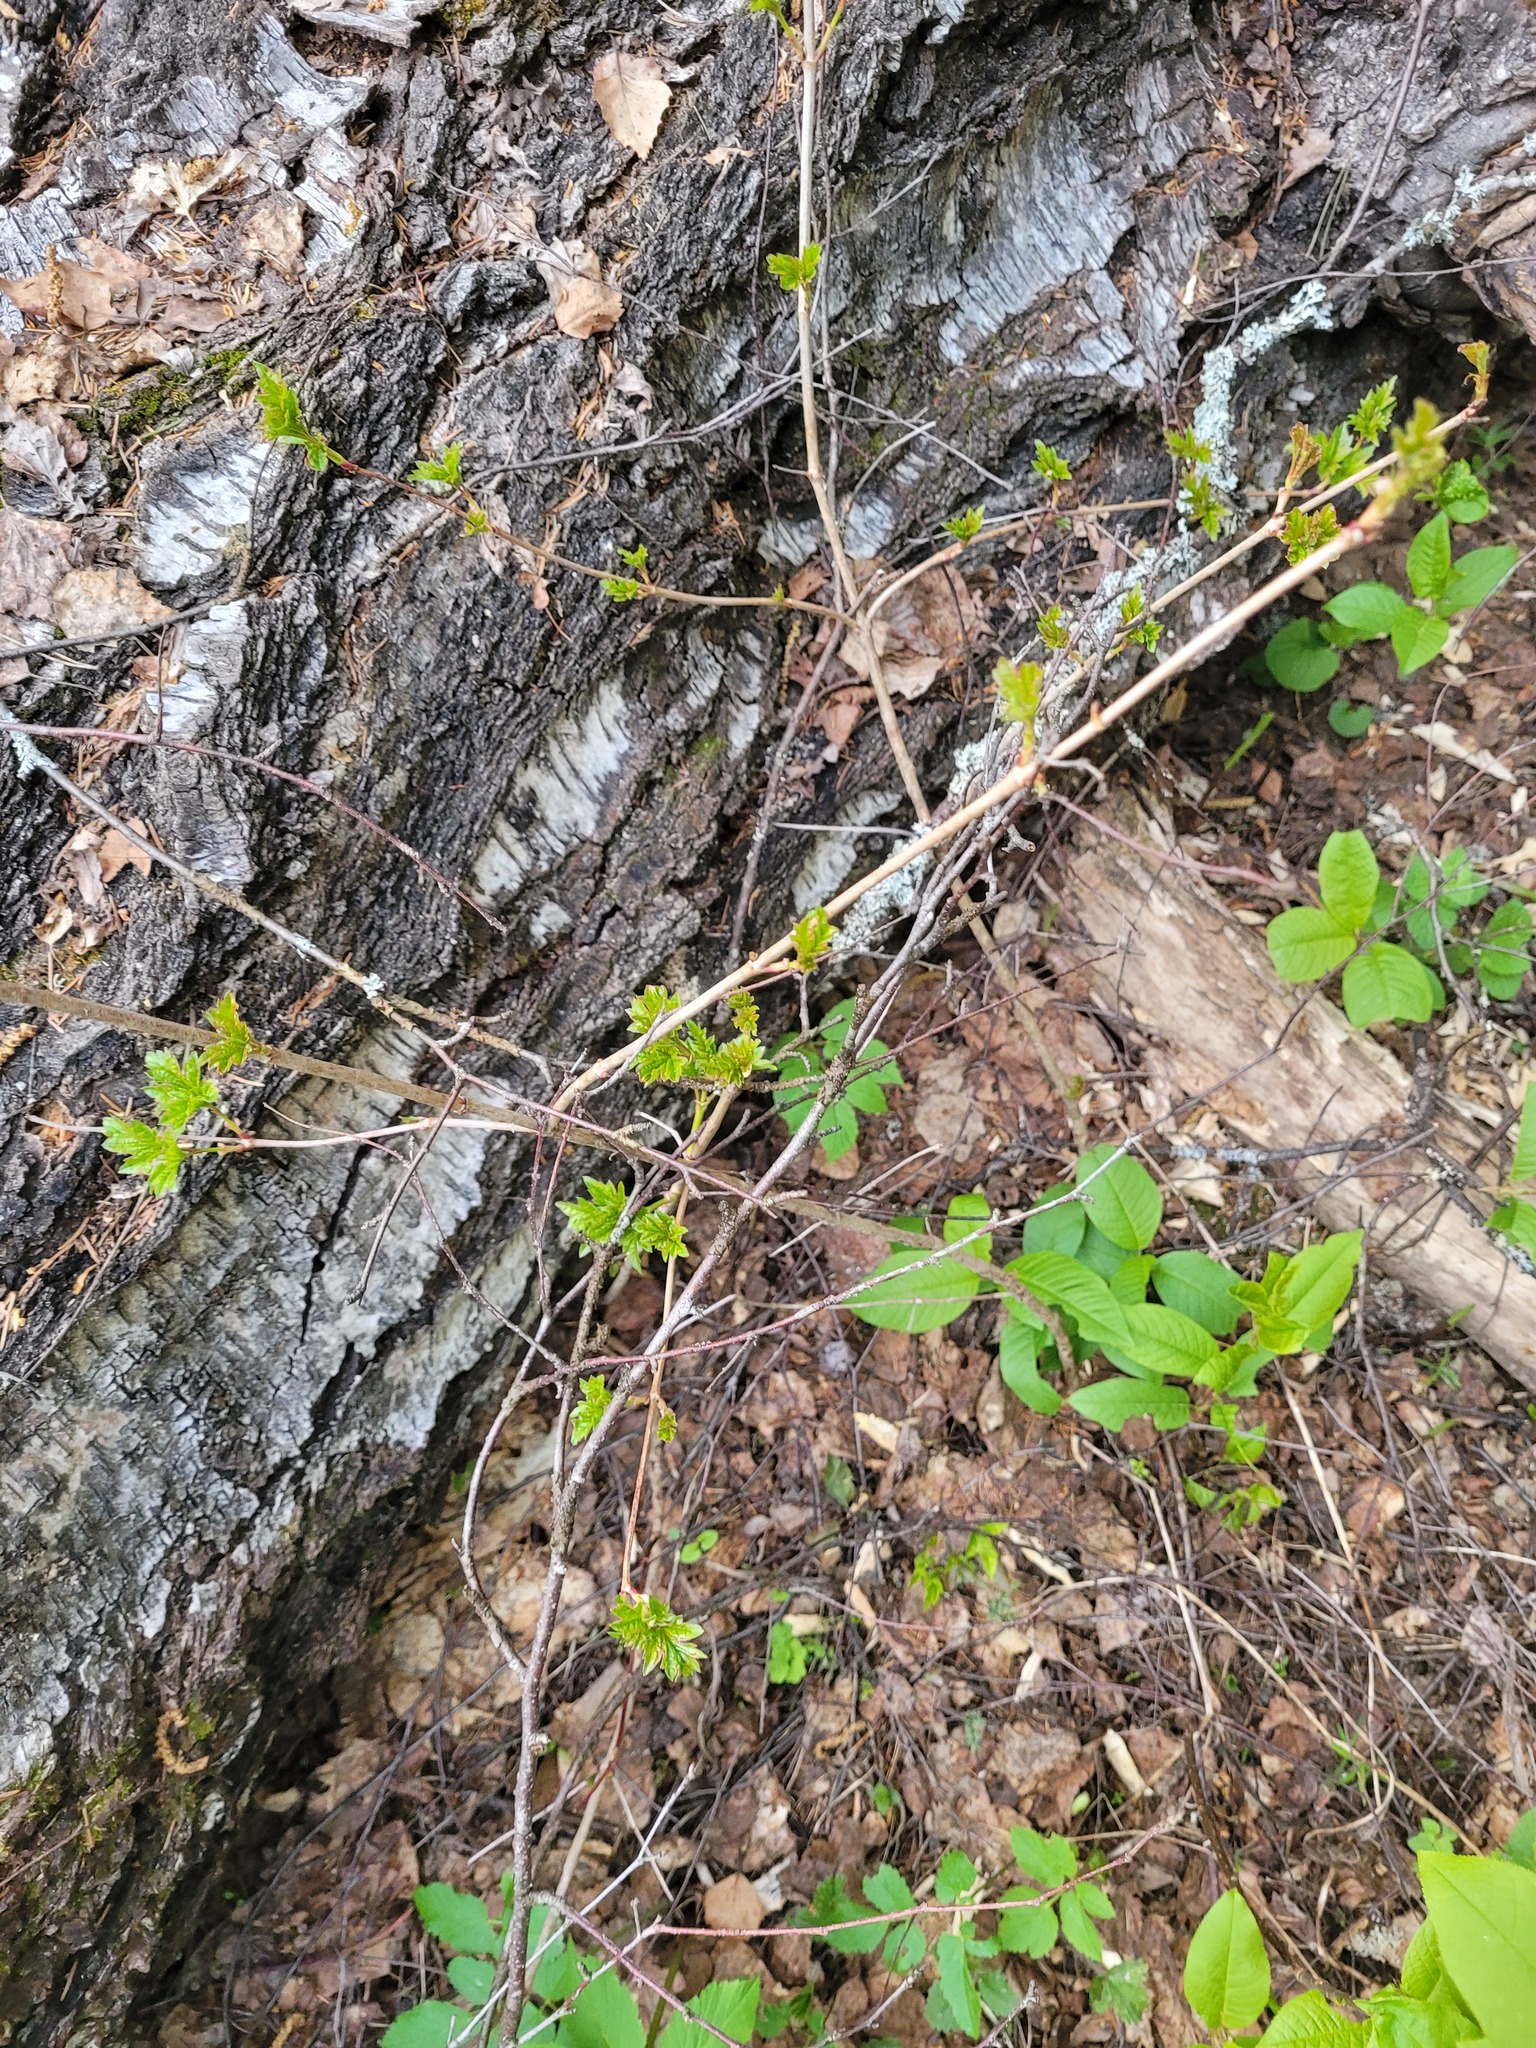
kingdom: Plantae
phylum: Tracheophyta
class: Magnoliopsida
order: Dipsacales
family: Viburnaceae
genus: Viburnum
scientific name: Viburnum opulus
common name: Guelder-rose
